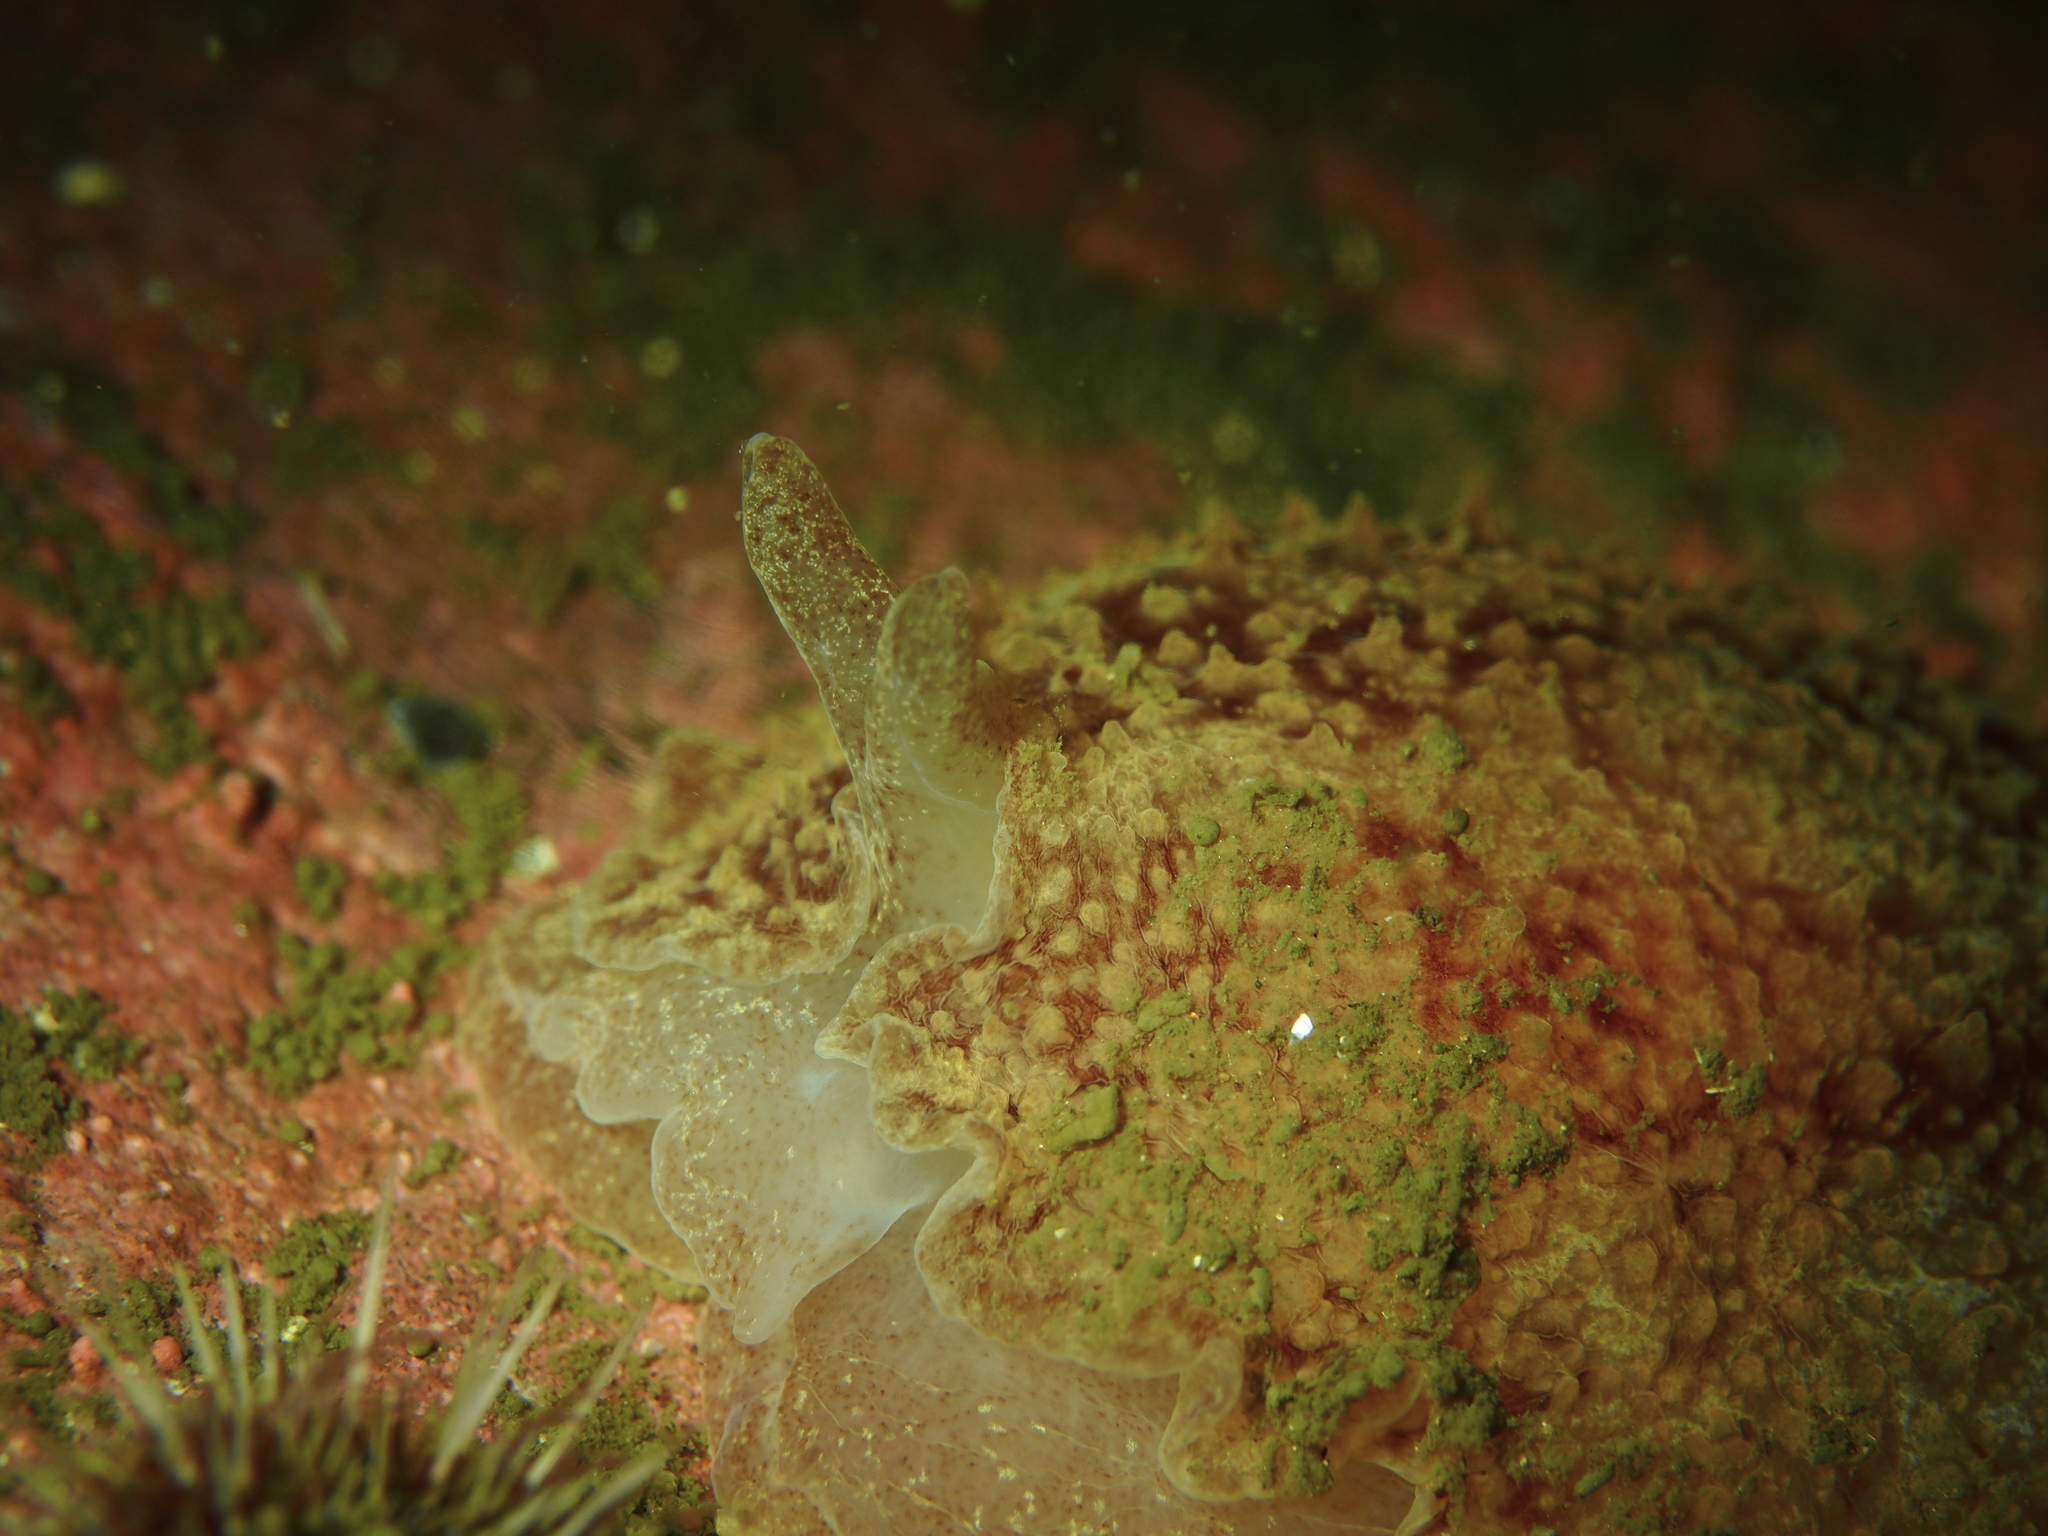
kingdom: Animalia
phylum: Mollusca
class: Gastropoda
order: Pleurobranchida
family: Pleurobranchidae
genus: Pleurobranchus
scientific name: Pleurobranchus membranaceus
